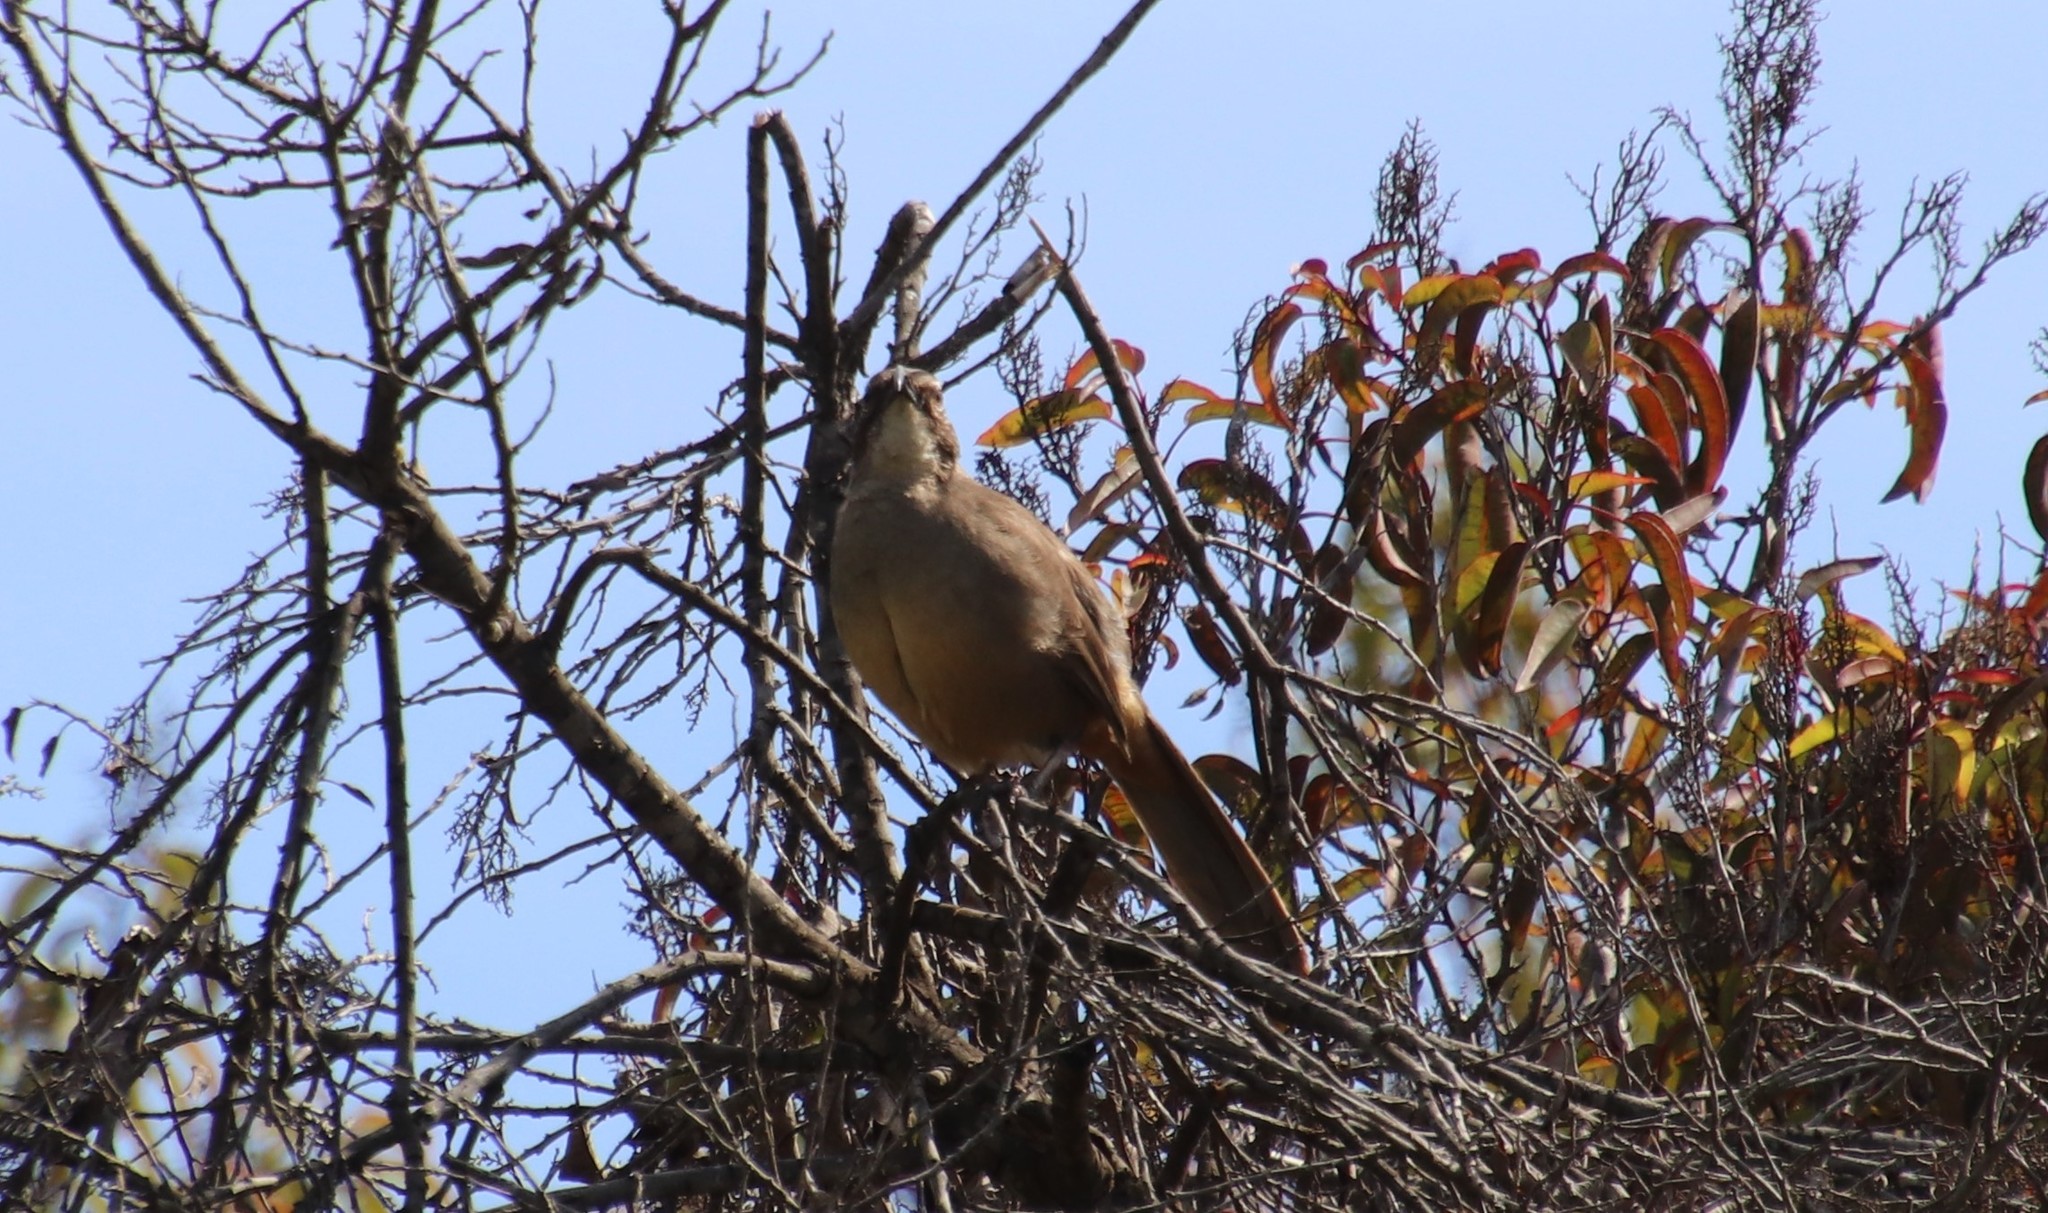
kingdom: Animalia
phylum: Chordata
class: Aves
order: Passeriformes
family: Mimidae
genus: Toxostoma
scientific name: Toxostoma redivivum
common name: California thrasher
